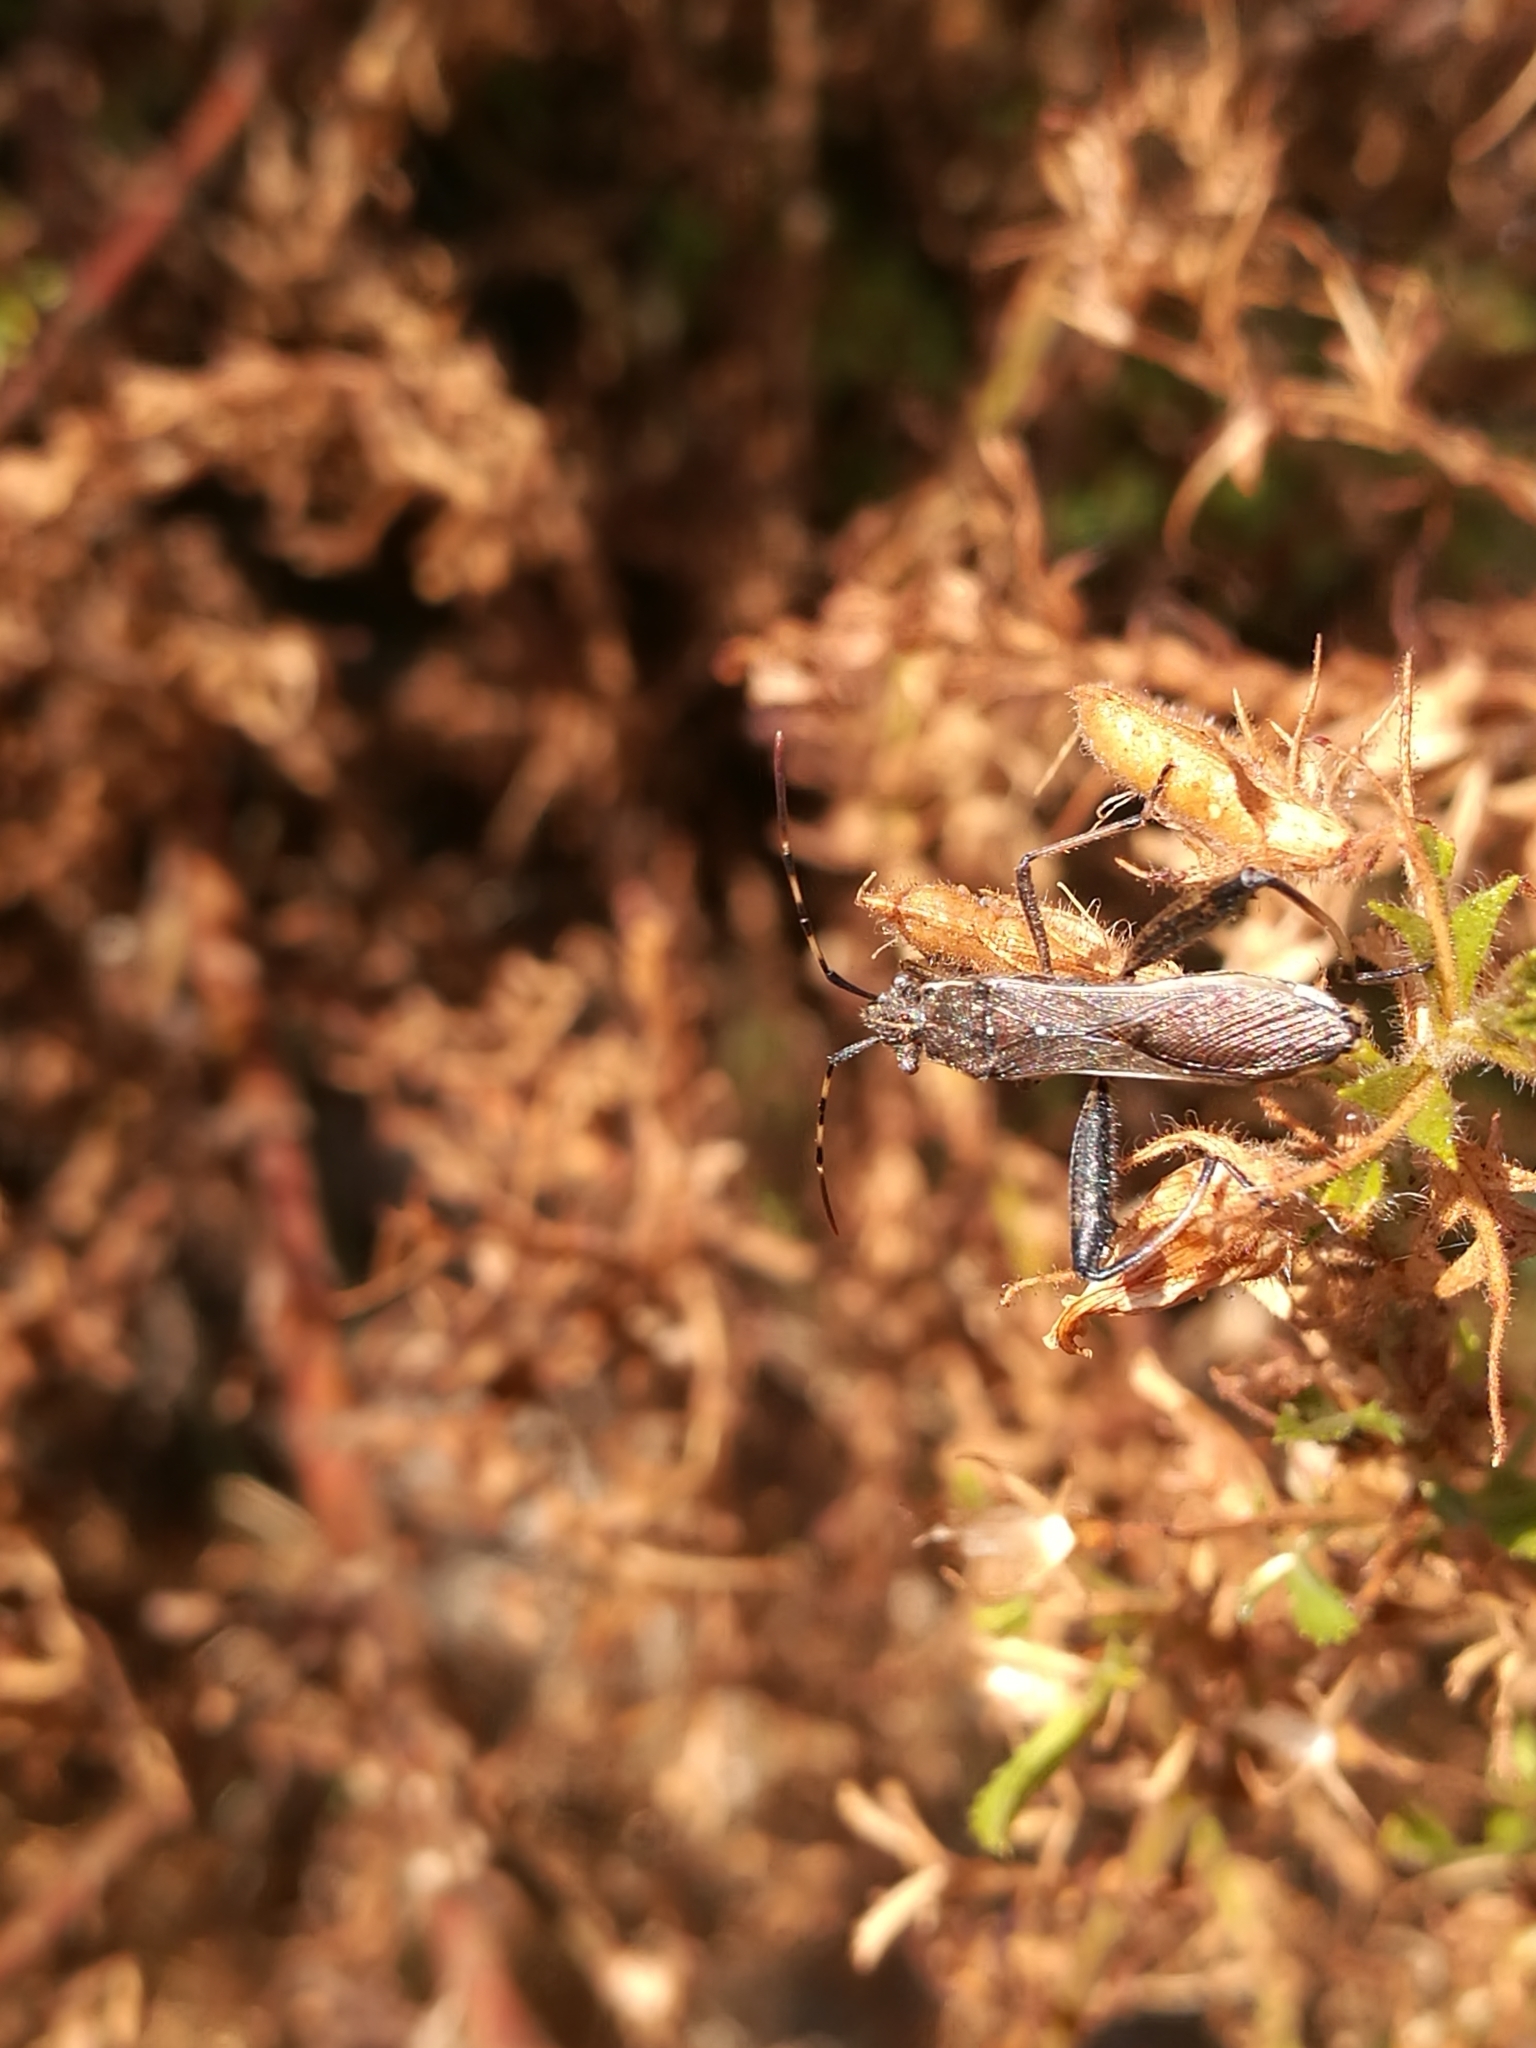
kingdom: Animalia
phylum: Arthropoda
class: Insecta
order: Hemiptera
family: Alydidae
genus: Camptopus
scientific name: Camptopus lateralis
